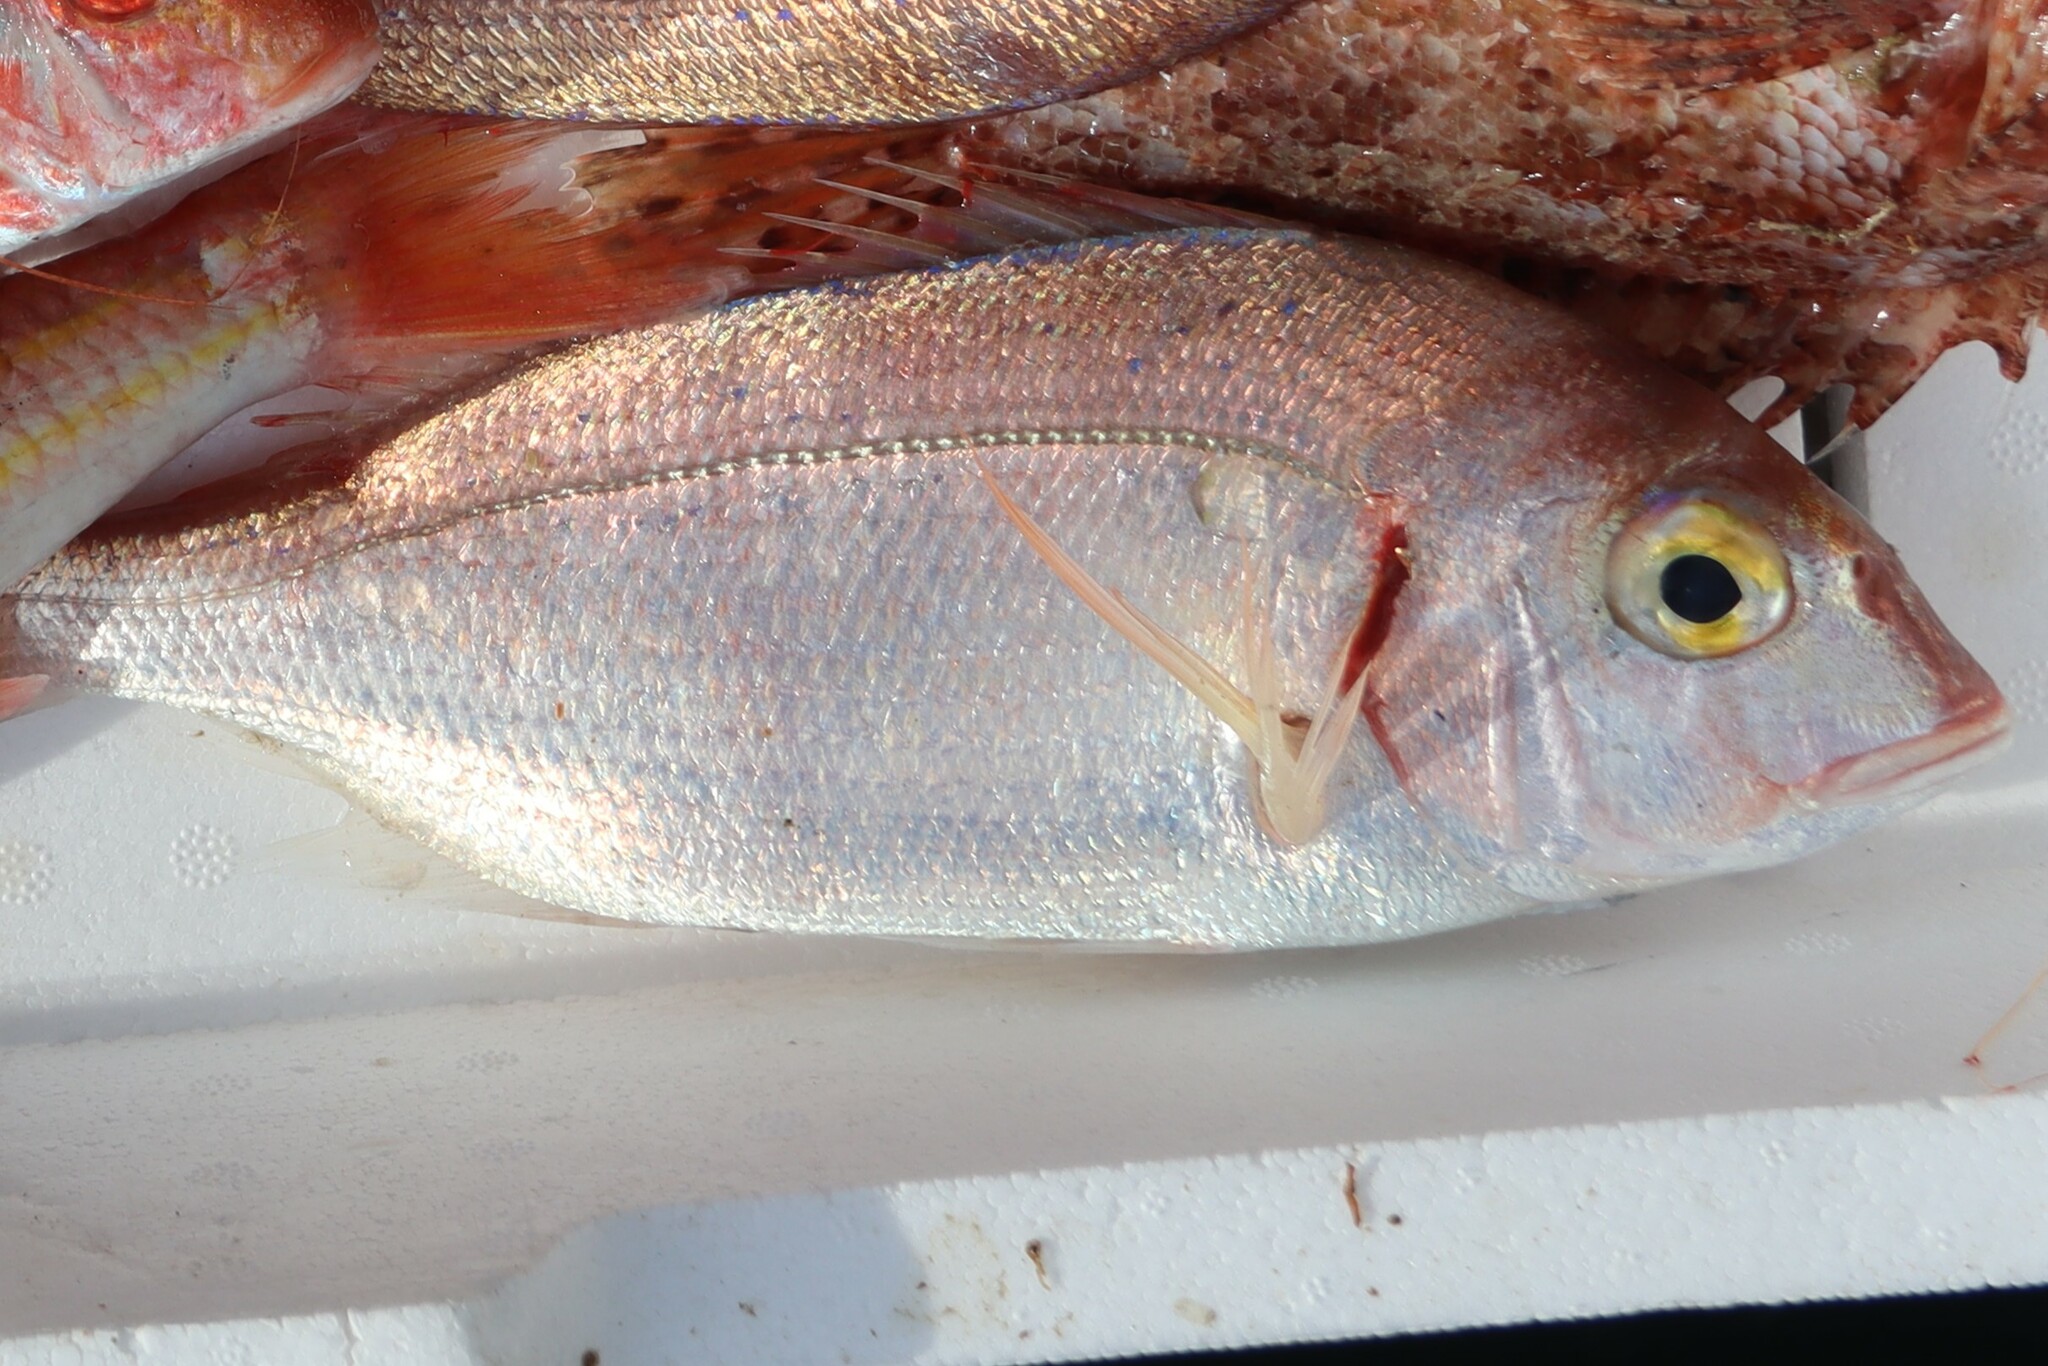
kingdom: Animalia
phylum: Chordata
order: Perciformes
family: Sparidae
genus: Pagellus
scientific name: Pagellus erythrinus
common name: Pandora
